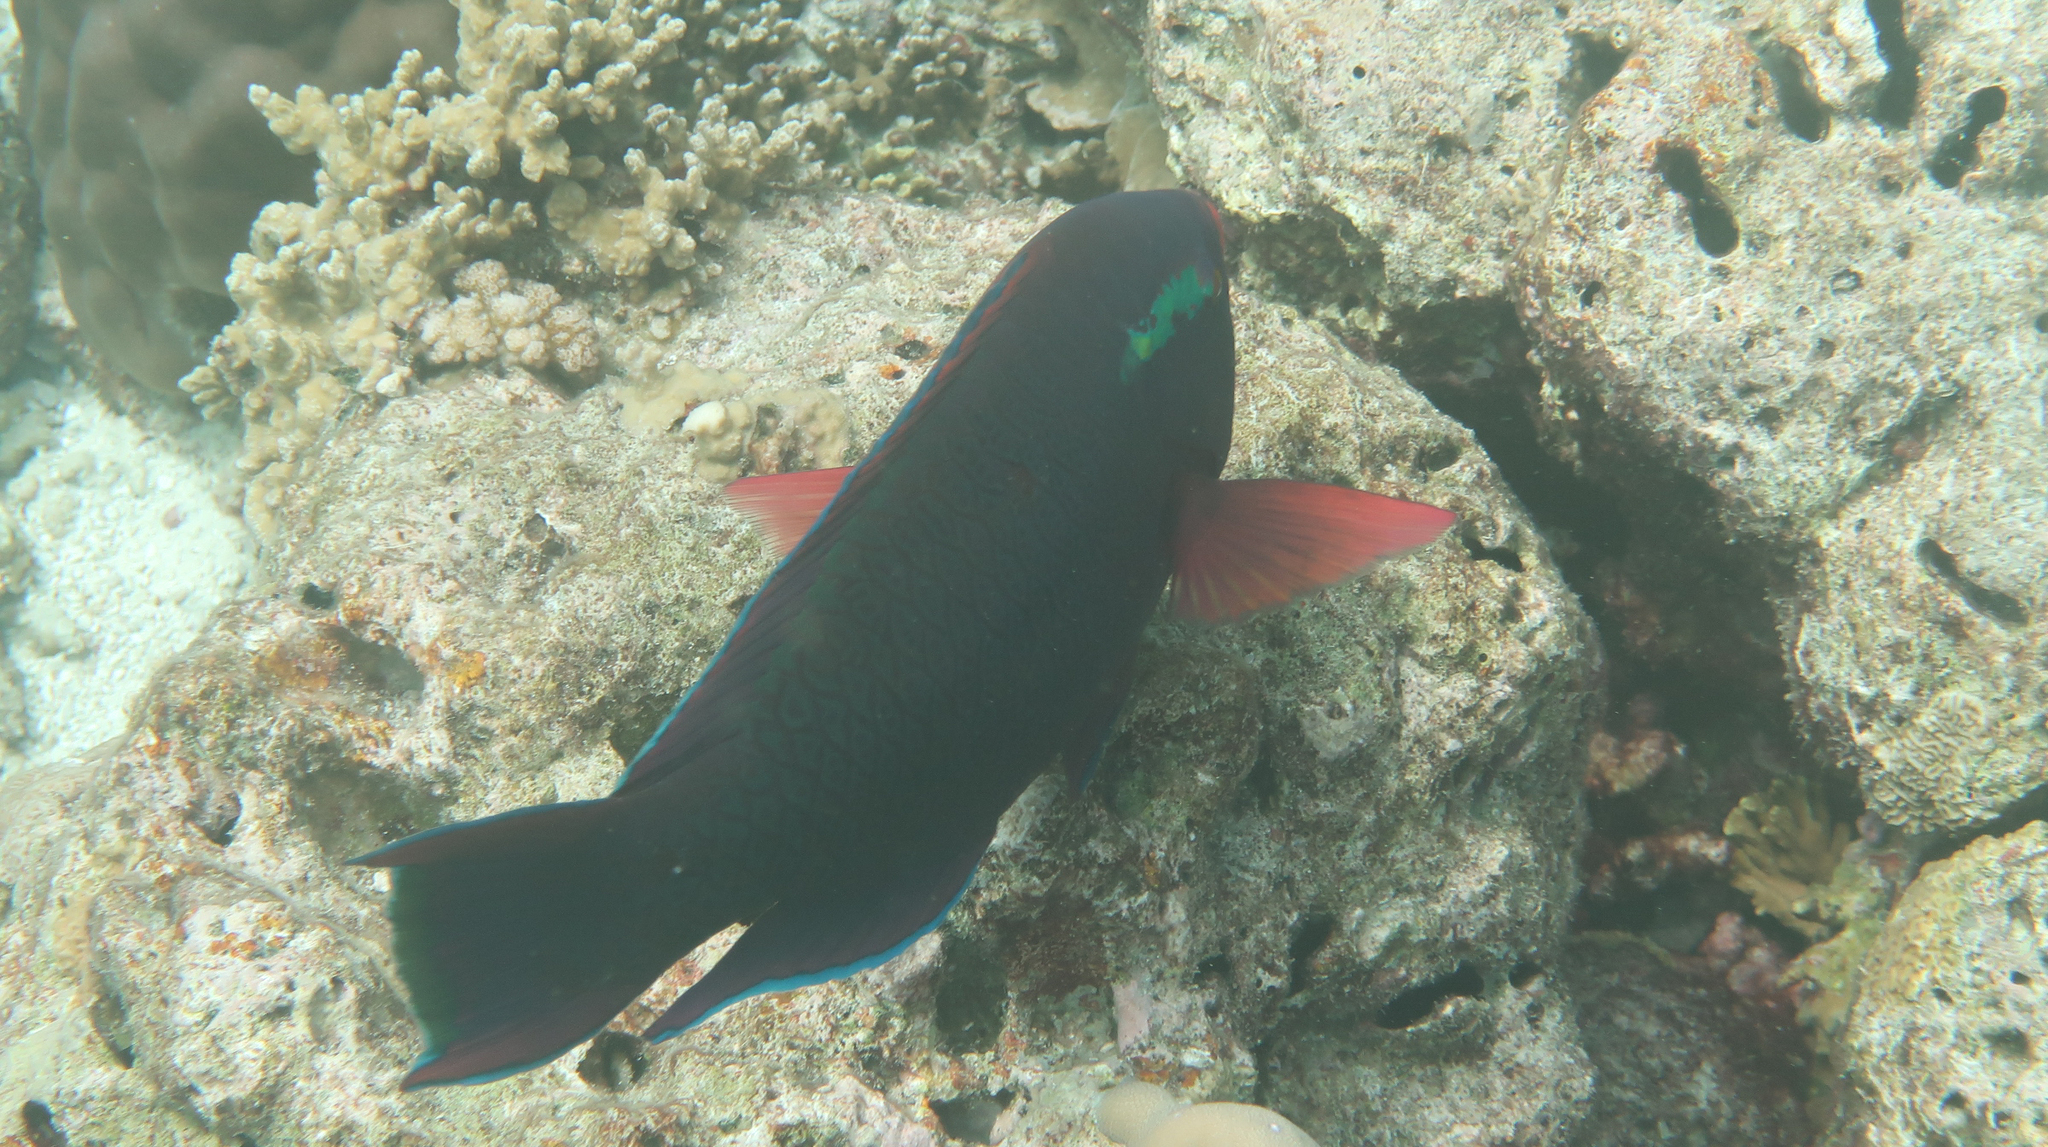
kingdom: Animalia
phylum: Chordata
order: Perciformes
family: Scaridae
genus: Scarus
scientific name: Scarus niger
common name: Dusky parrotfish
